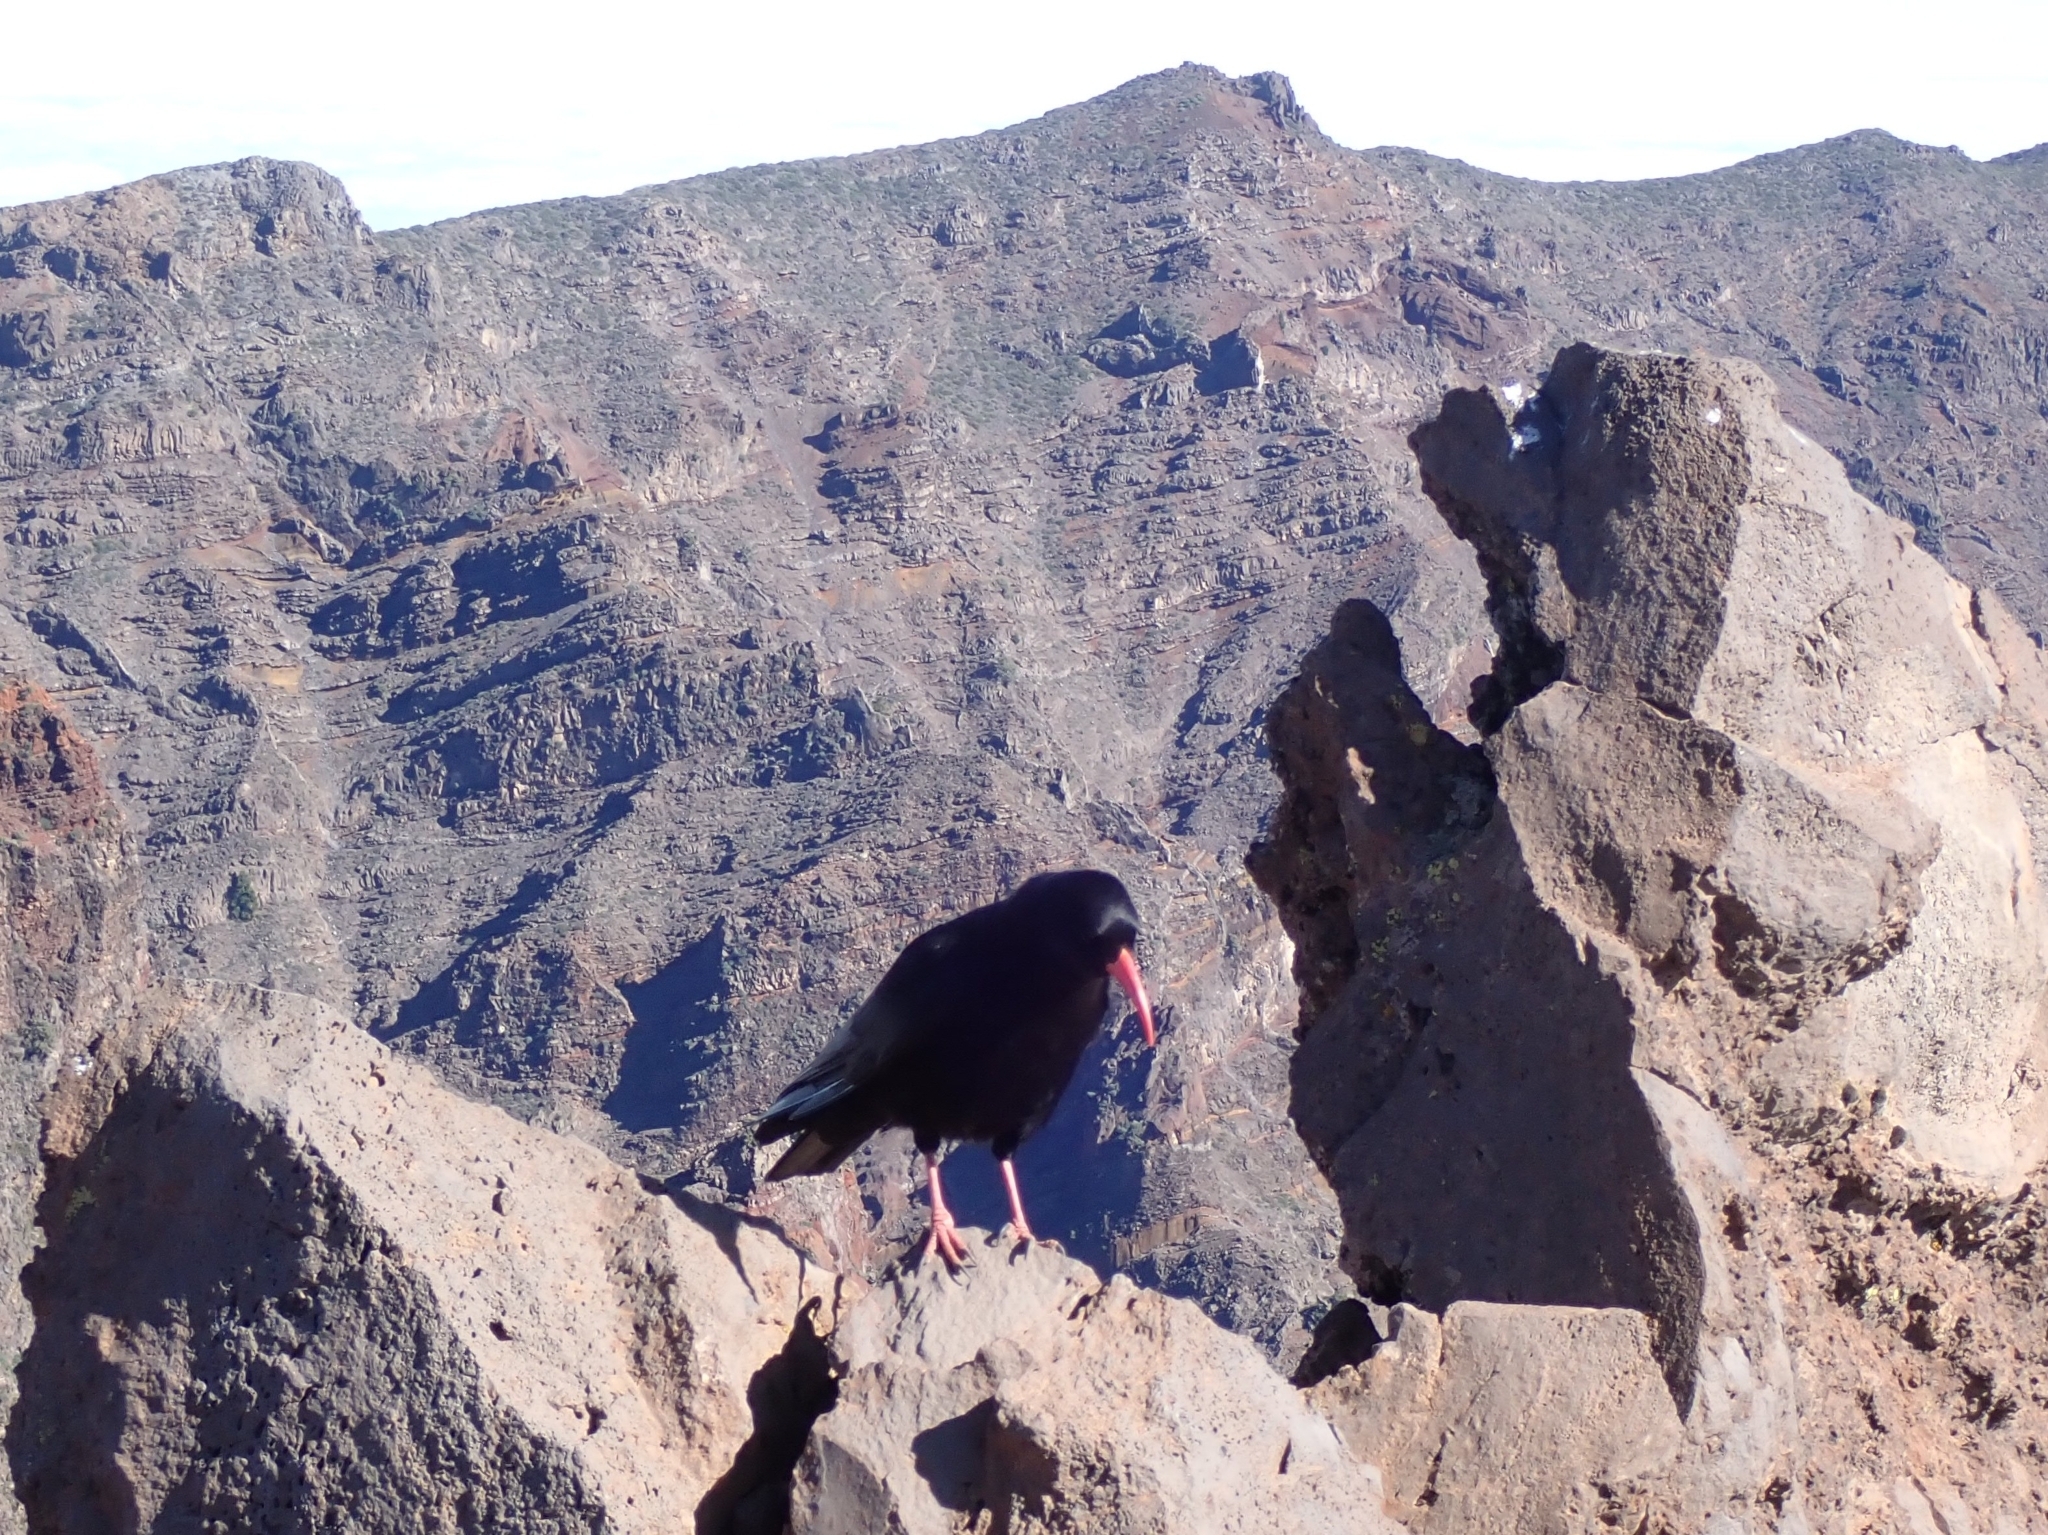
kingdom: Animalia
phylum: Chordata
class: Aves
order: Passeriformes
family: Corvidae
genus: Pyrrhocorax
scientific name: Pyrrhocorax pyrrhocorax
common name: Red-billed chough
